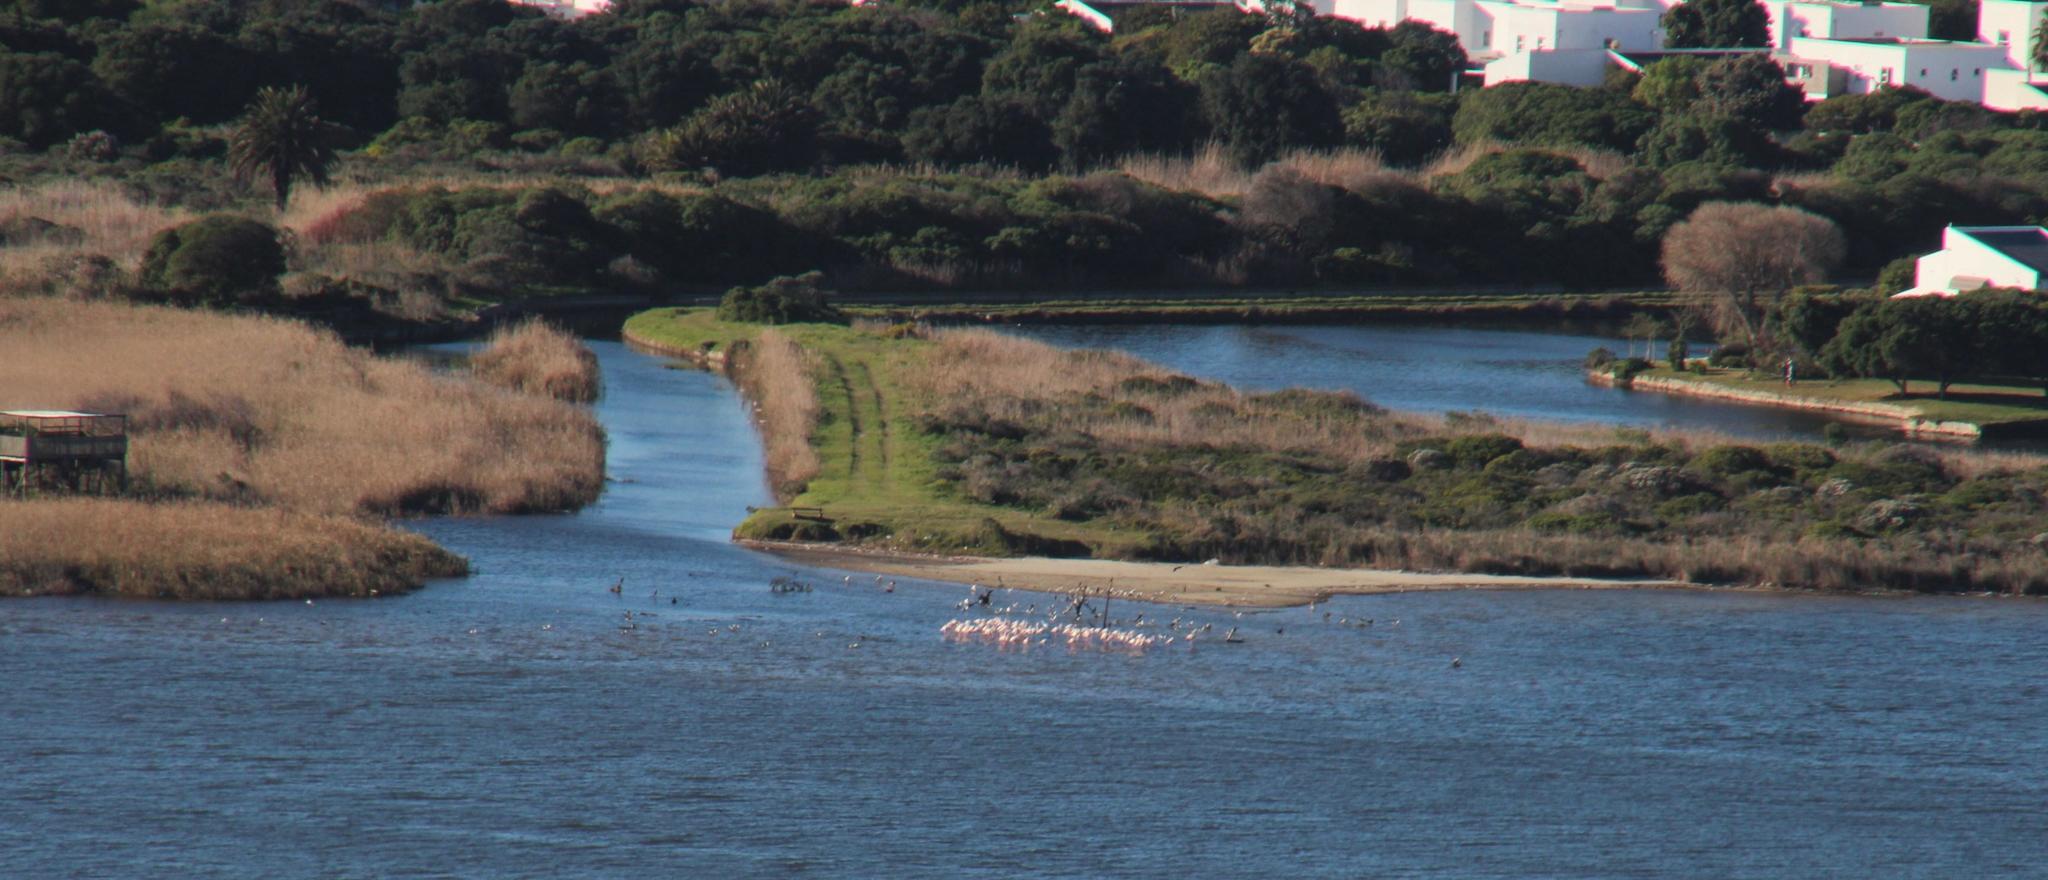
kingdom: Animalia
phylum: Chordata
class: Aves
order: Phoenicopteriformes
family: Phoenicopteridae
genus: Phoenicopterus
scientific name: Phoenicopterus roseus
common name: Greater flamingo
